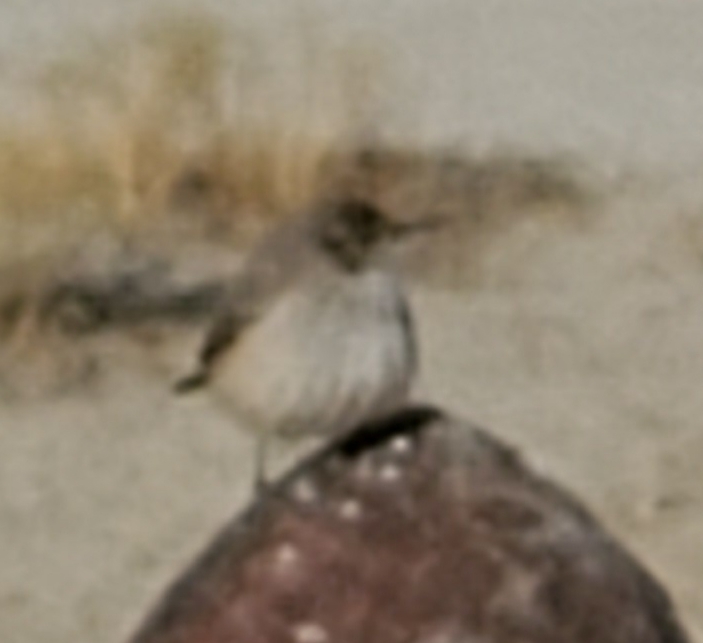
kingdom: Animalia
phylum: Chordata
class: Aves
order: Passeriformes
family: Troglodytidae
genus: Salpinctes
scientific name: Salpinctes obsoletus
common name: Rock wren
